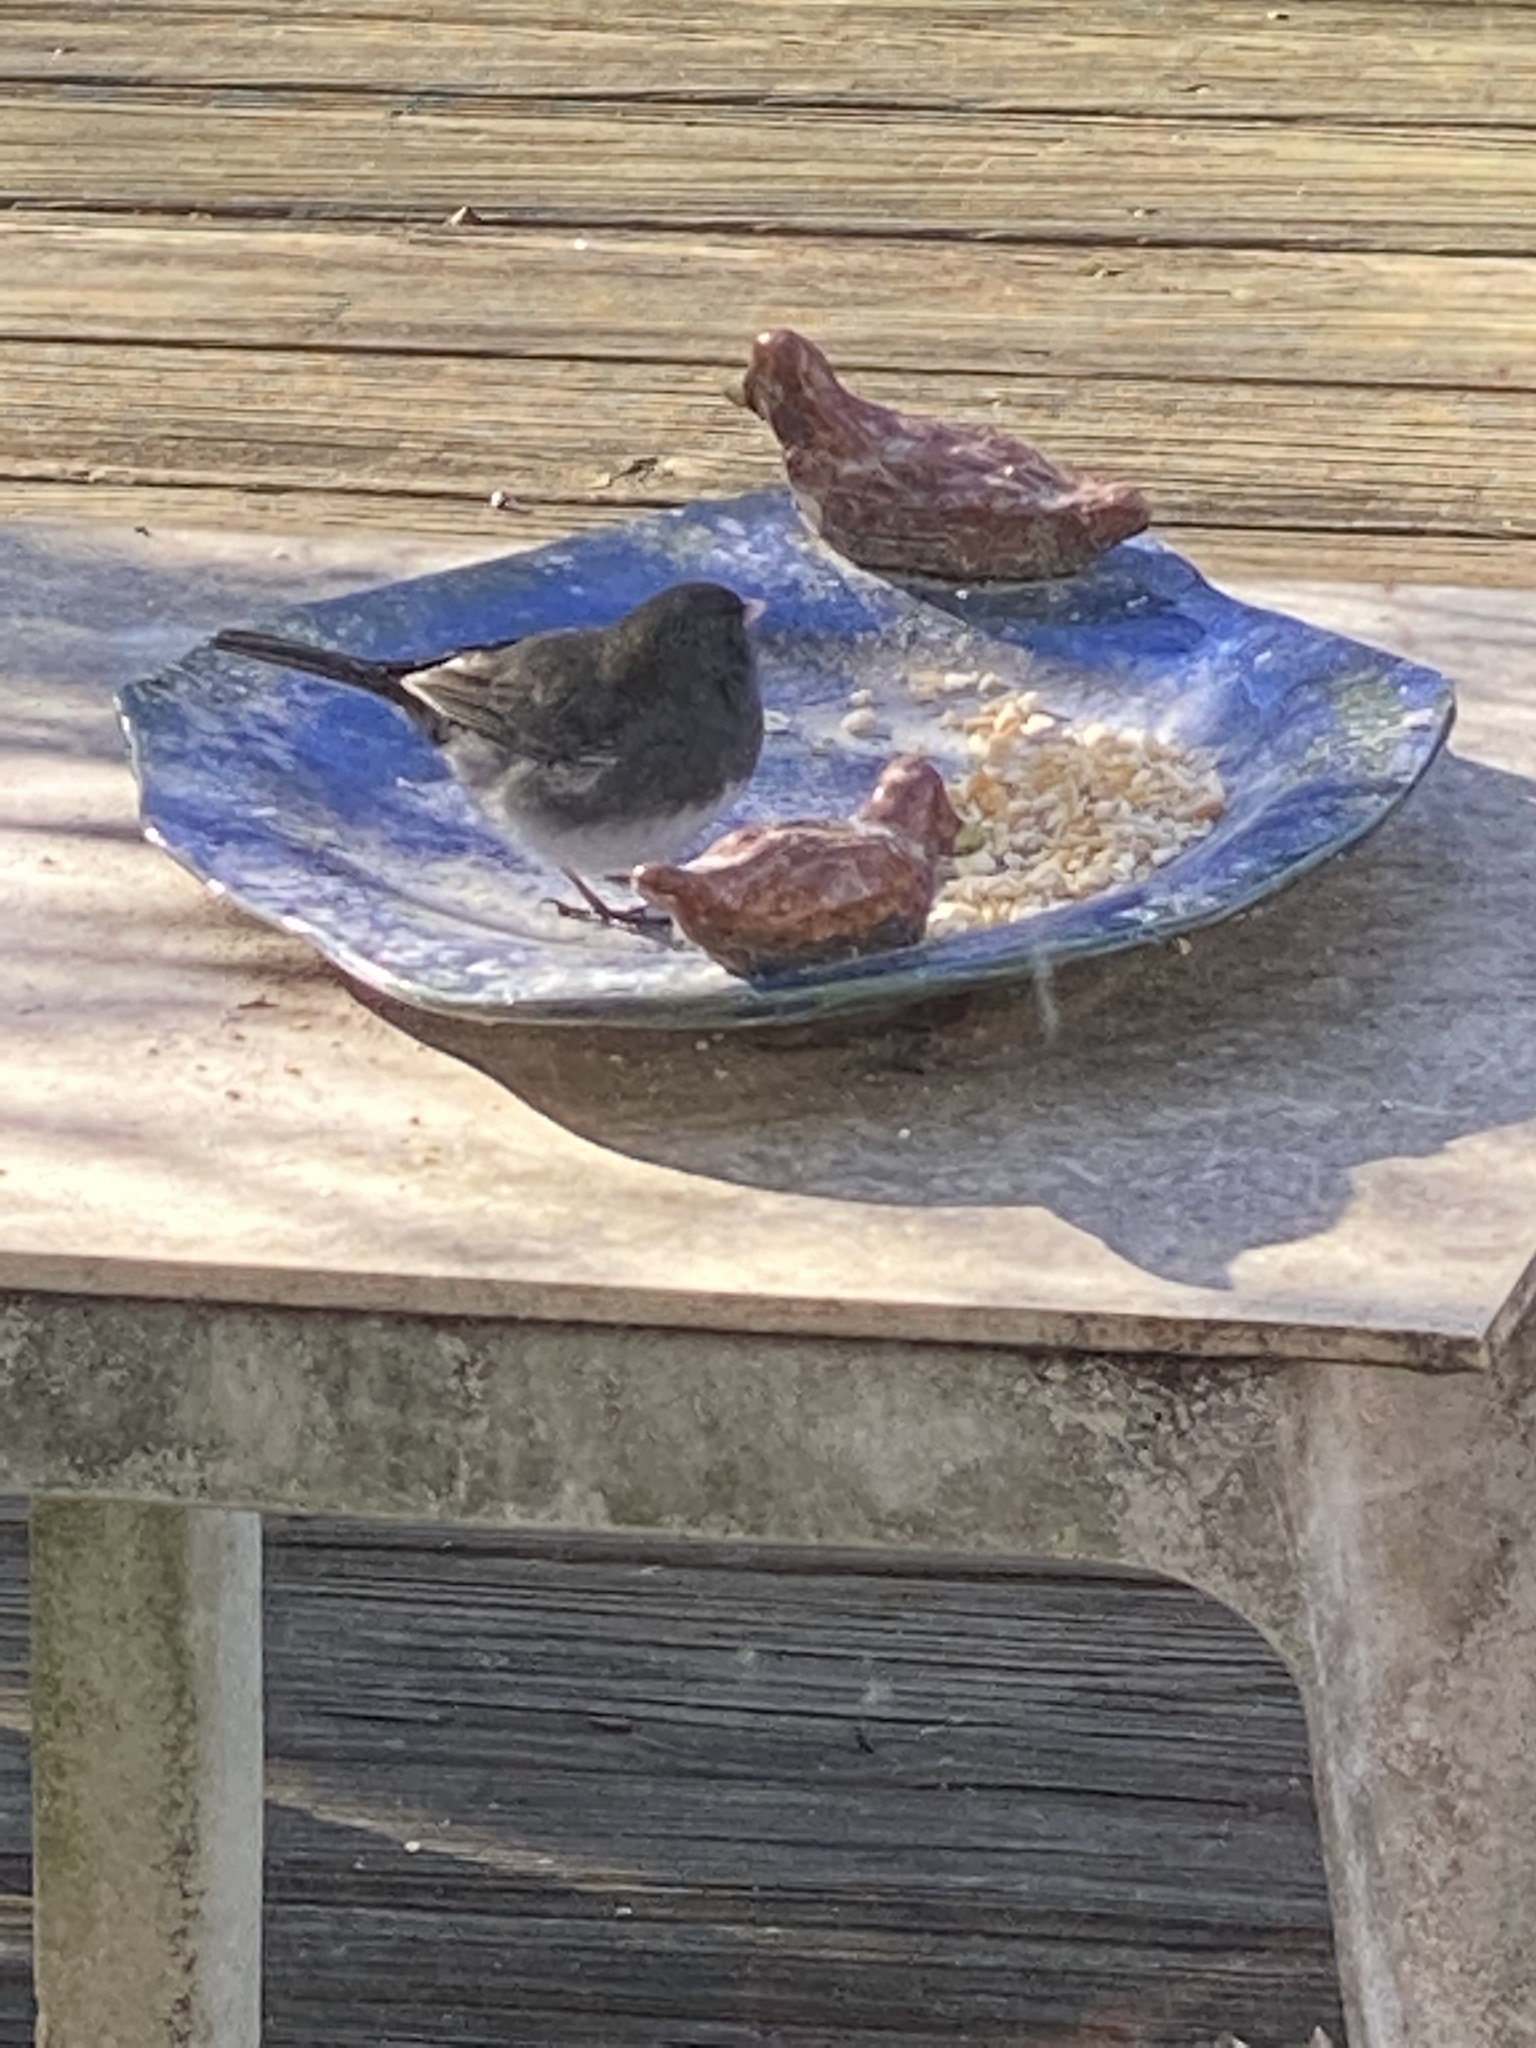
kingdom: Animalia
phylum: Chordata
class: Aves
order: Passeriformes
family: Passerellidae
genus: Junco
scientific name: Junco hyemalis
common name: Dark-eyed junco
